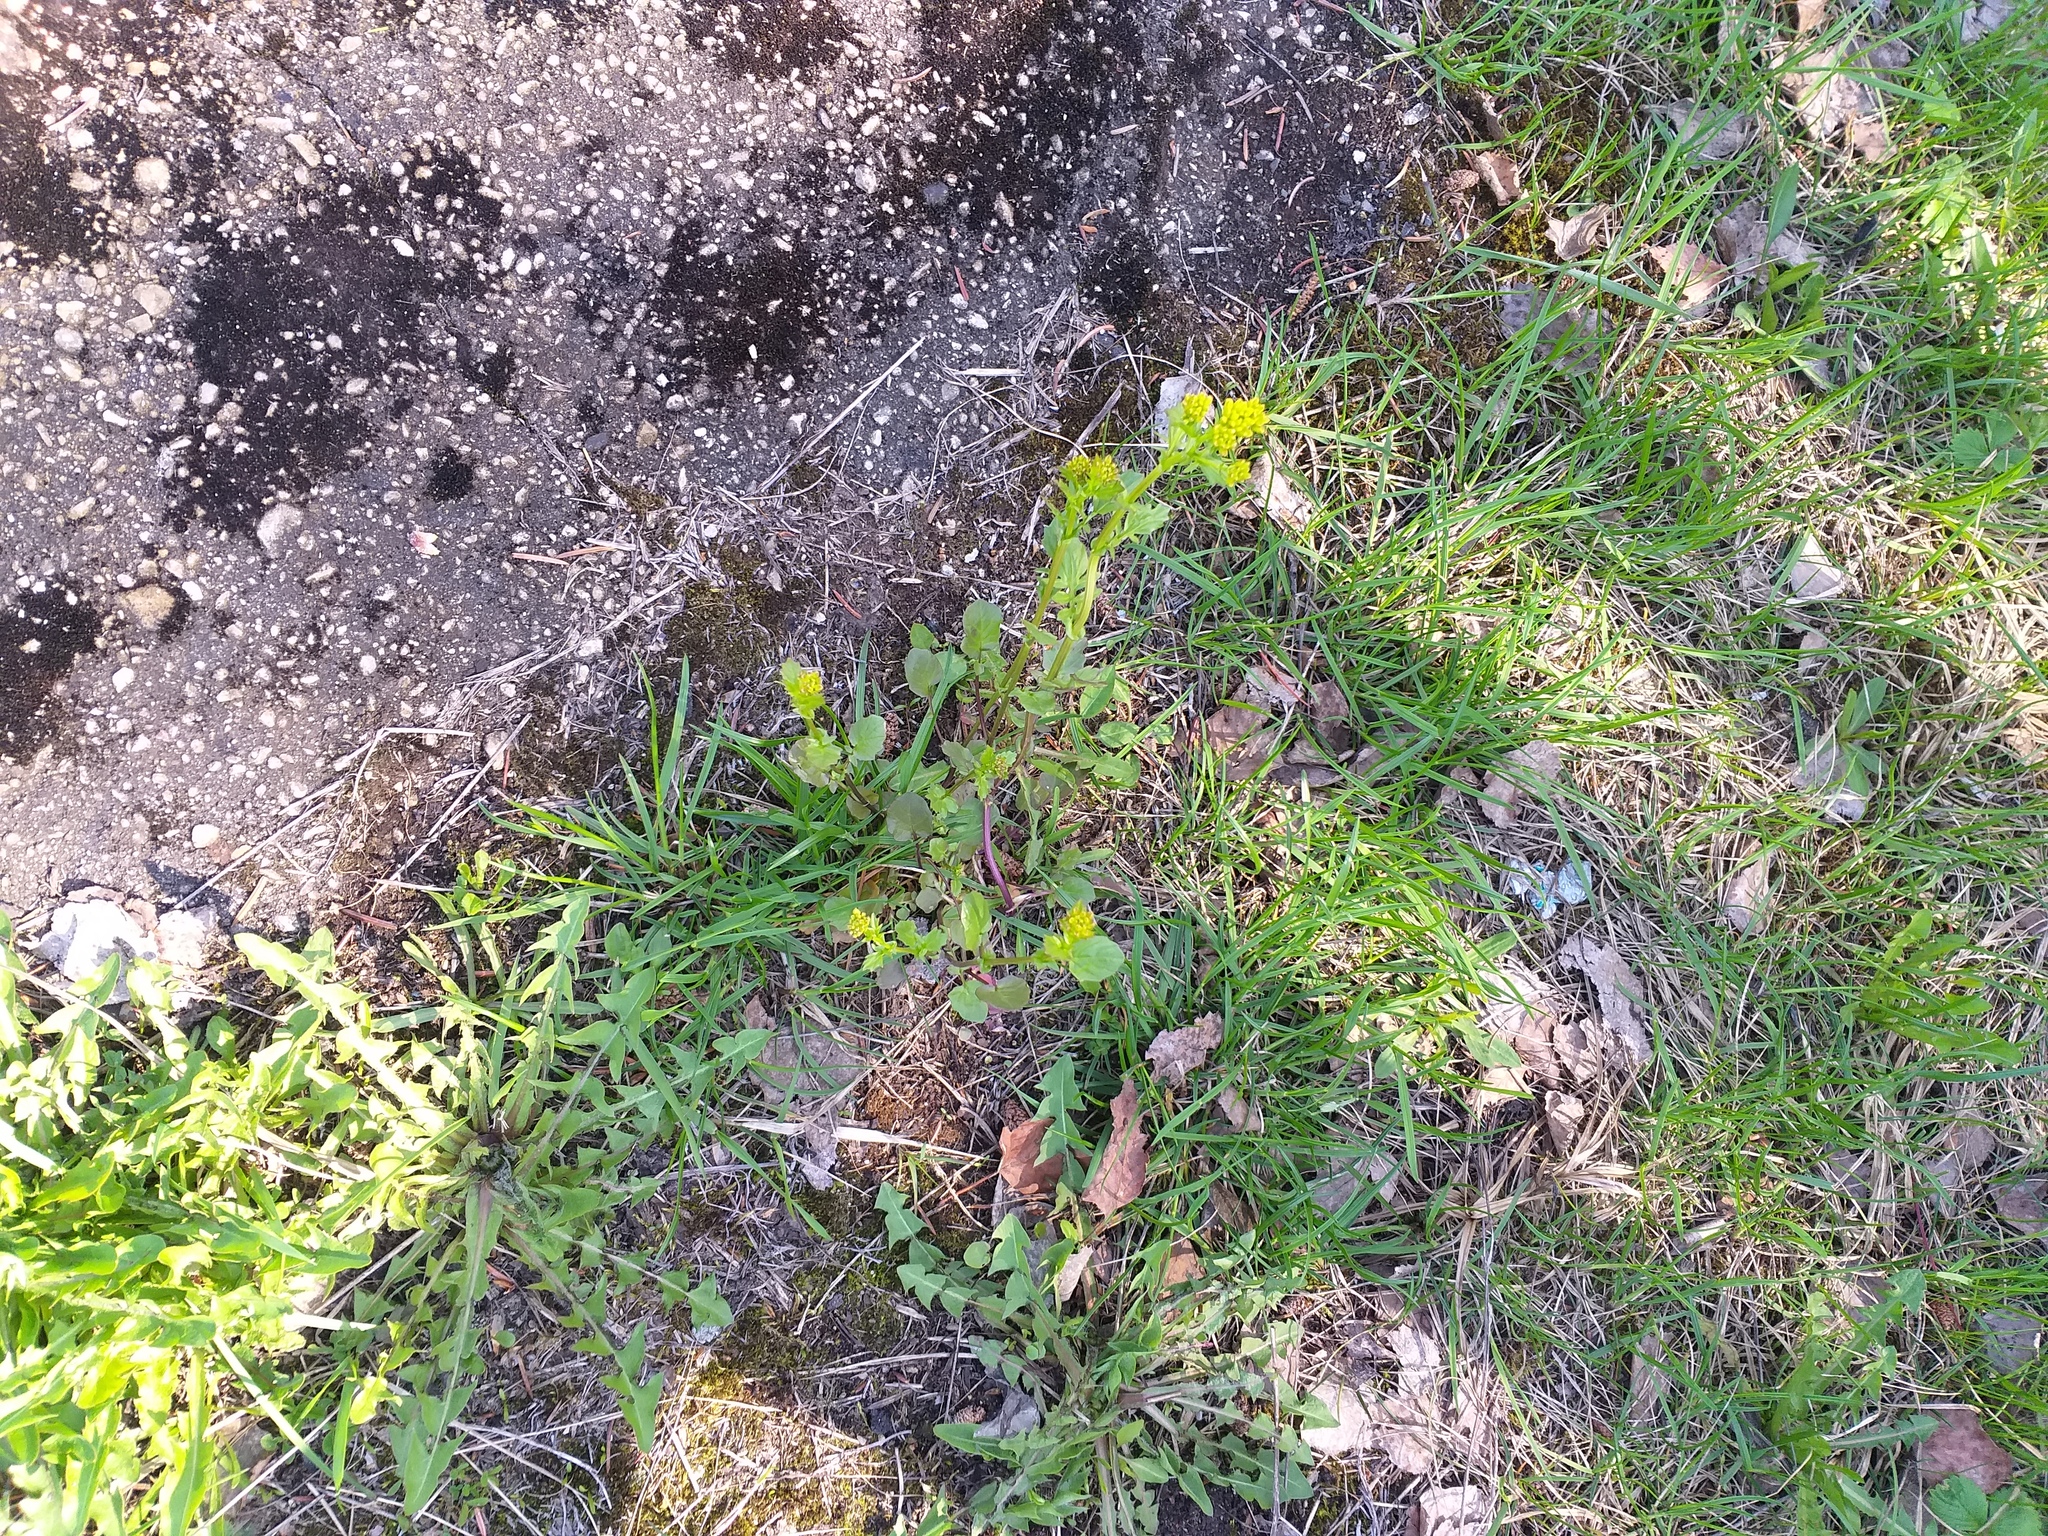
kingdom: Plantae
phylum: Tracheophyta
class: Magnoliopsida
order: Brassicales
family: Brassicaceae
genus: Barbarea
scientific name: Barbarea vulgaris
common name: Cressy-greens
